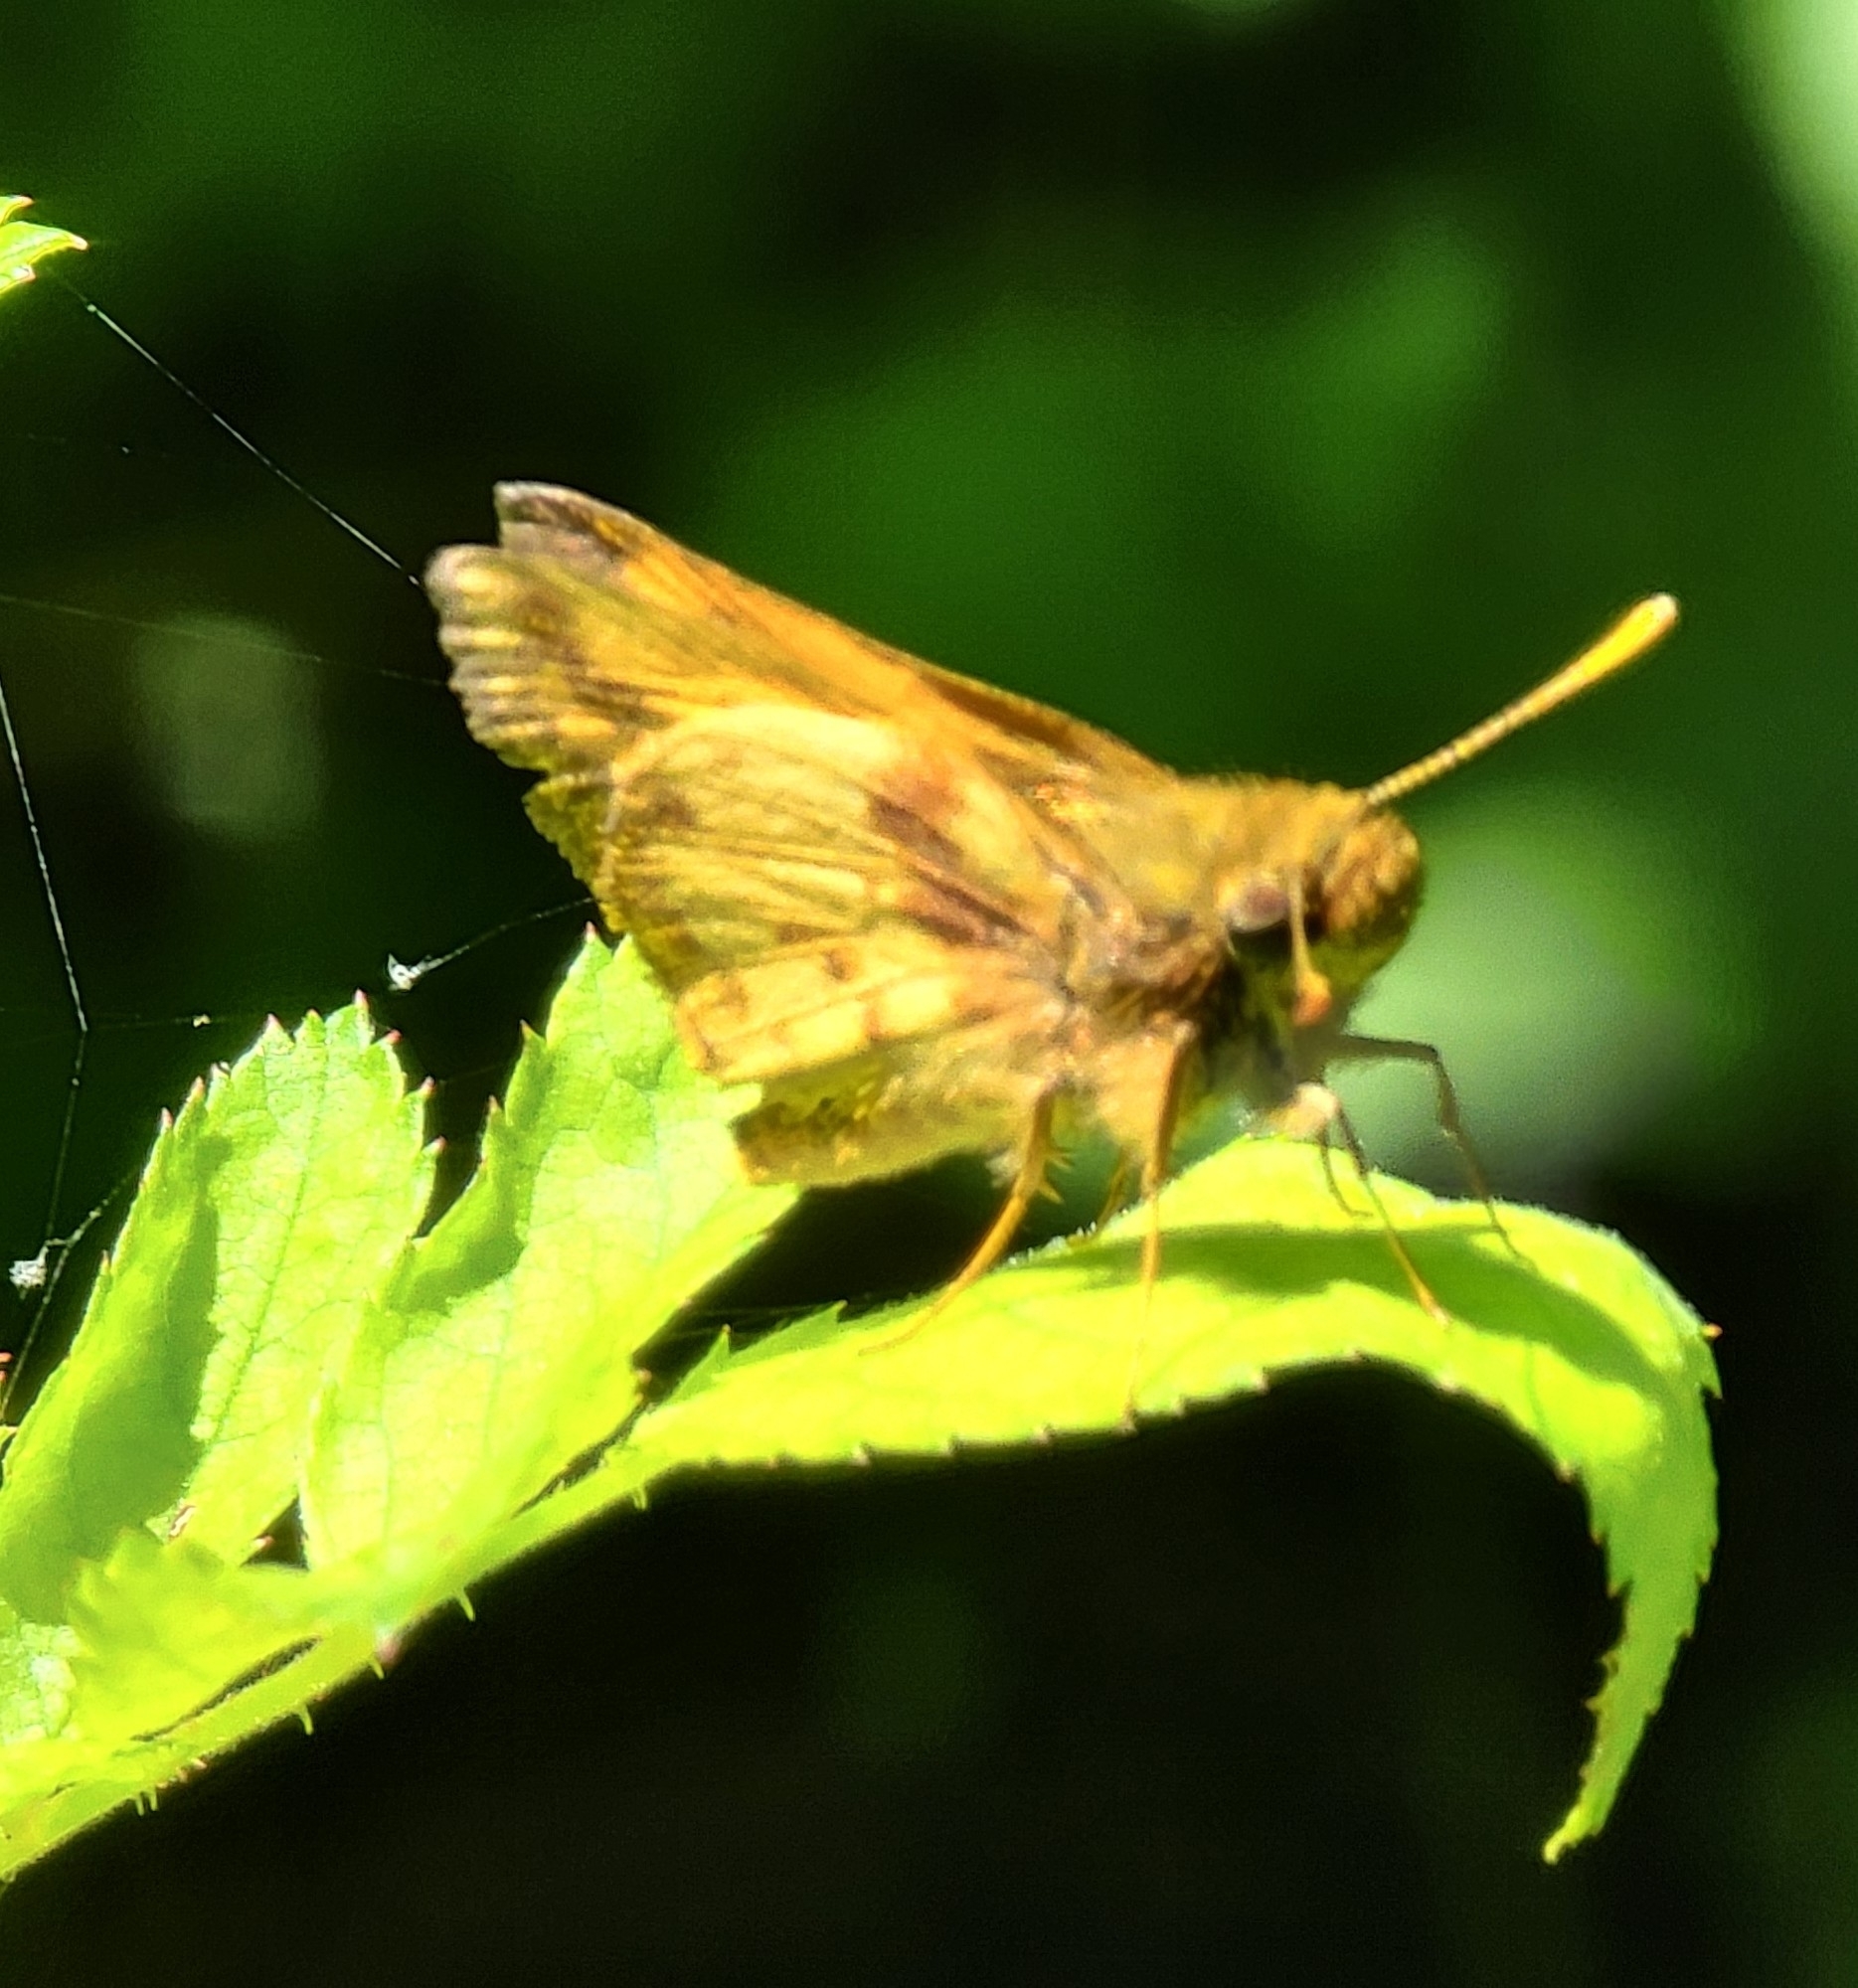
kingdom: Animalia
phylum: Arthropoda
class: Insecta
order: Lepidoptera
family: Hesperiidae
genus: Lon
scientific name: Lon zabulon
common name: Zabulon skipper
